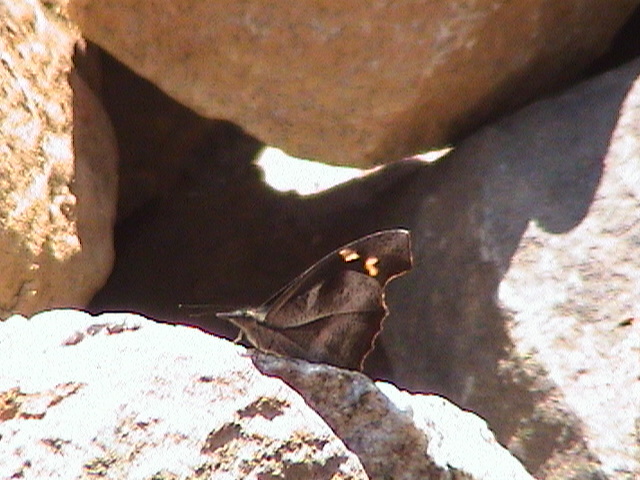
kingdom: Animalia
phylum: Arthropoda
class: Insecta
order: Lepidoptera
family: Nymphalidae
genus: Libythea
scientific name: Libythea myrrha
